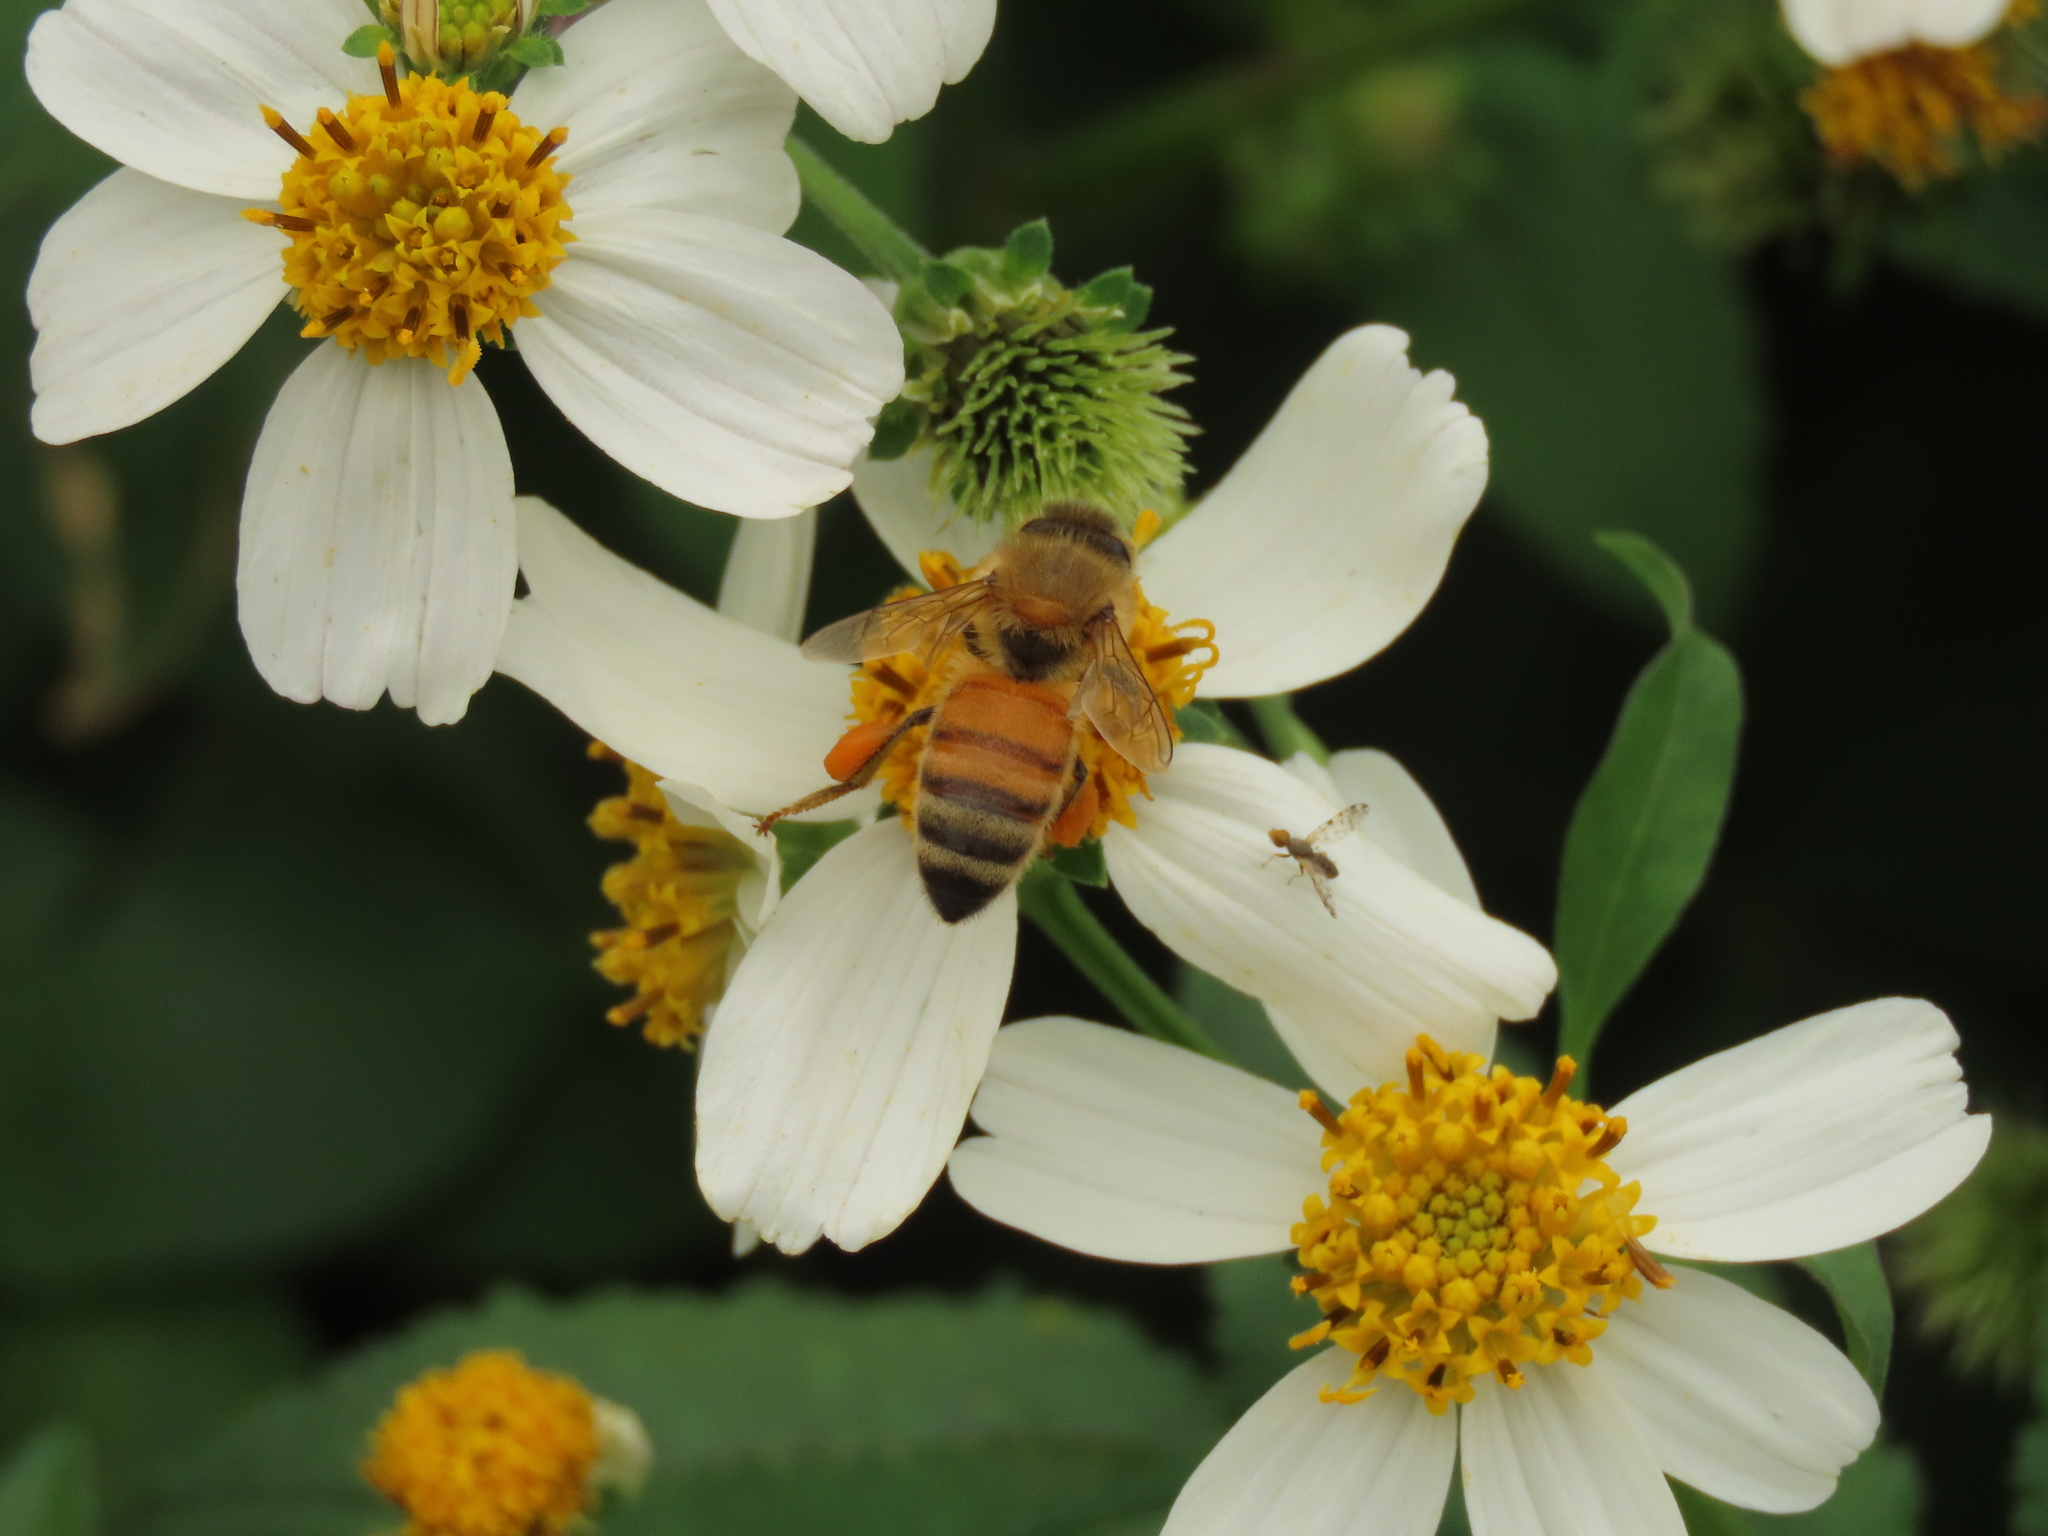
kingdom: Animalia
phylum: Arthropoda
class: Insecta
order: Hymenoptera
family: Apidae
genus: Apis
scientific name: Apis mellifera
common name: Honey bee
